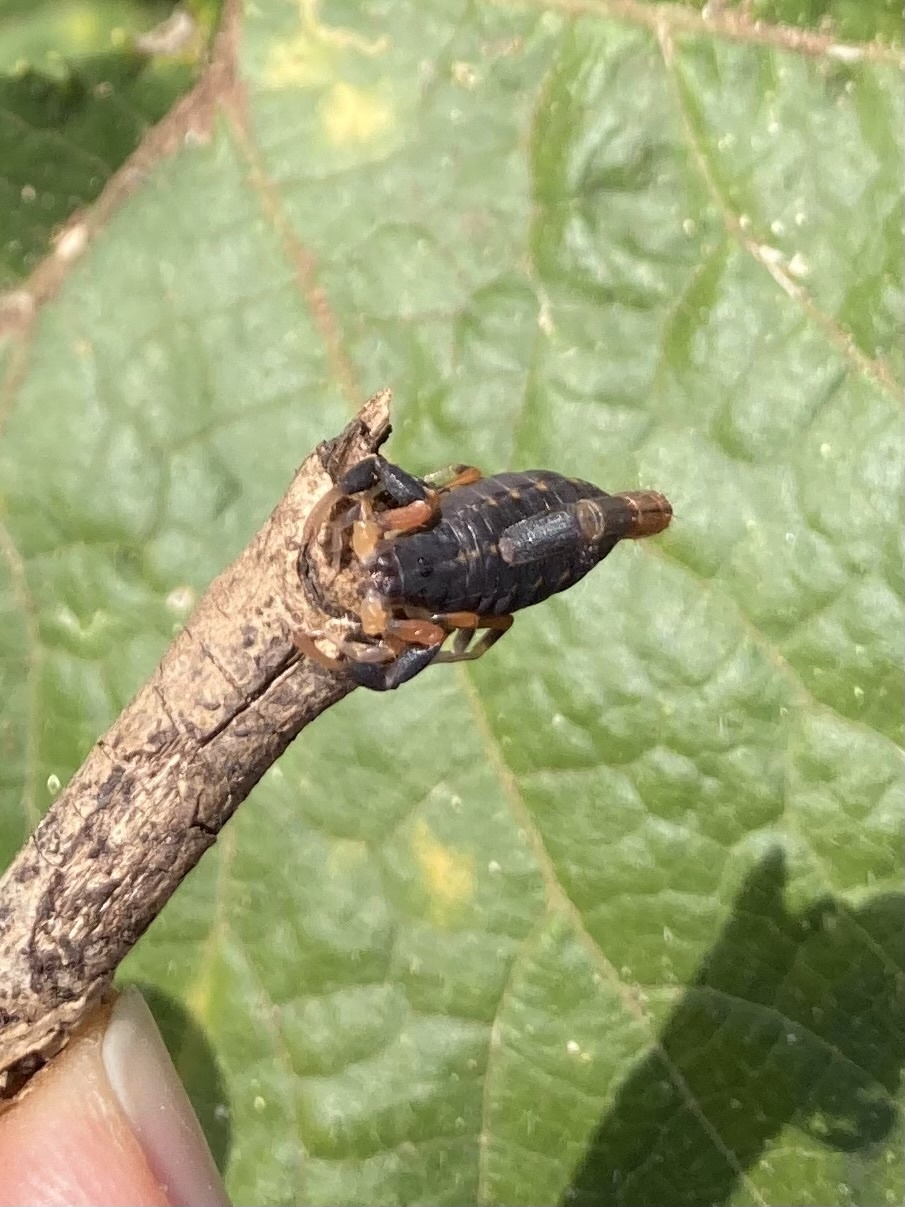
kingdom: Animalia
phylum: Arthropoda
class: Arachnida
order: Scorpiones
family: Buthidae
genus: Uroplectes
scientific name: Uroplectes triangulifer
